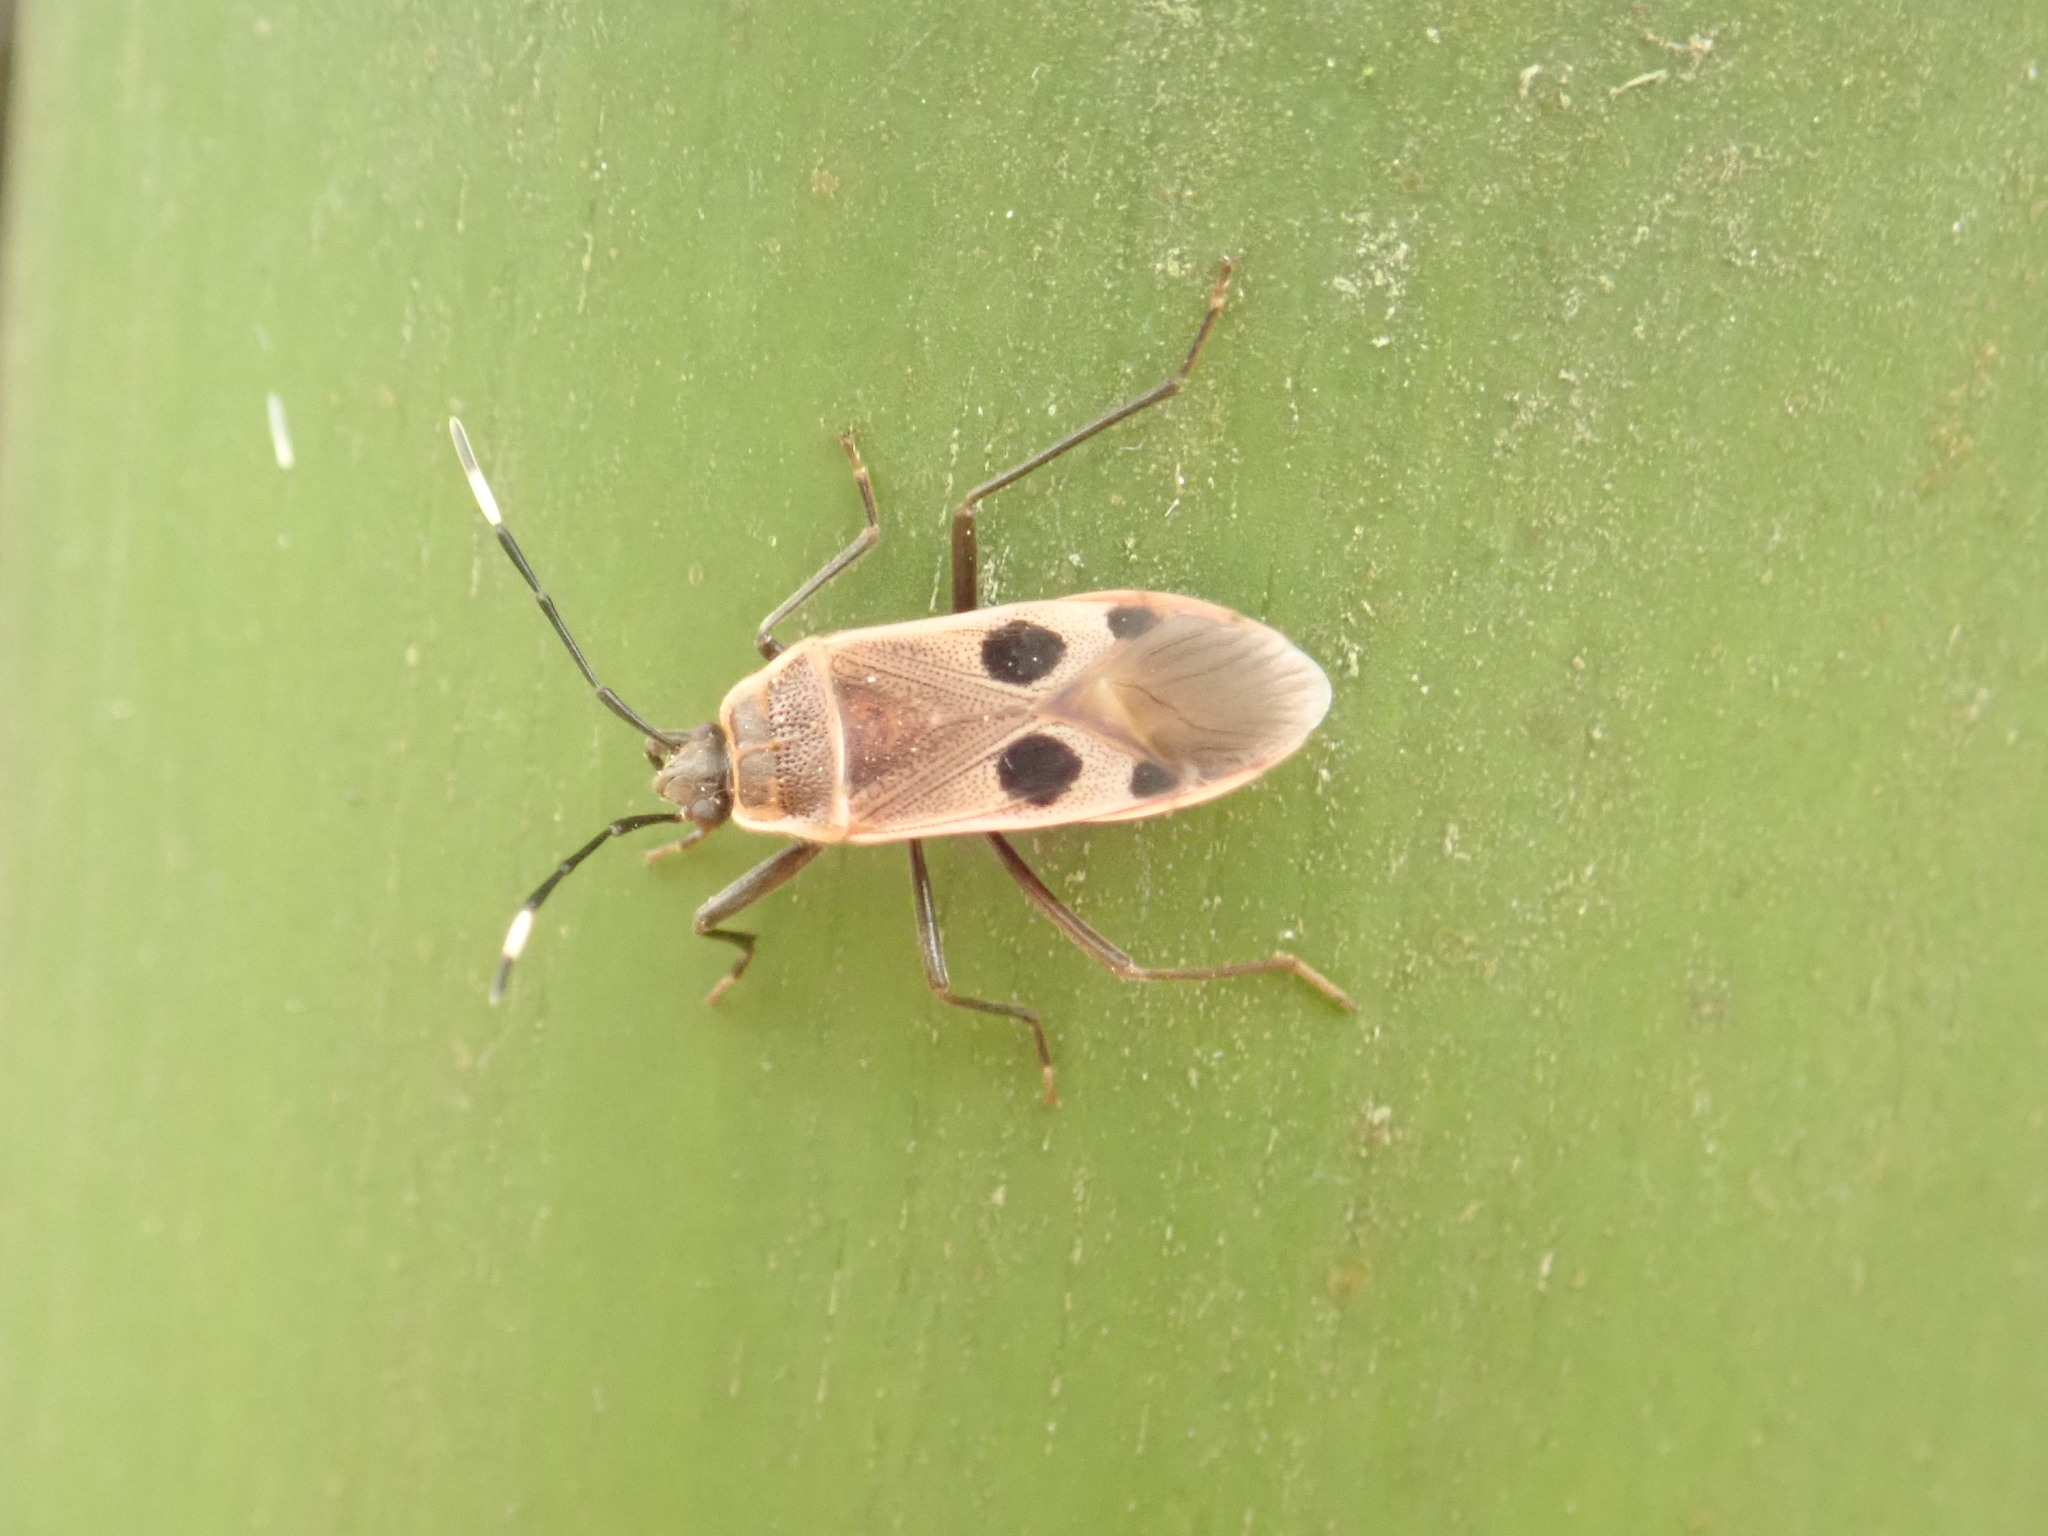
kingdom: Animalia
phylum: Arthropoda
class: Insecta
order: Hemiptera
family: Largidae
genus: Physopelta
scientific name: Physopelta fusciscutellata
